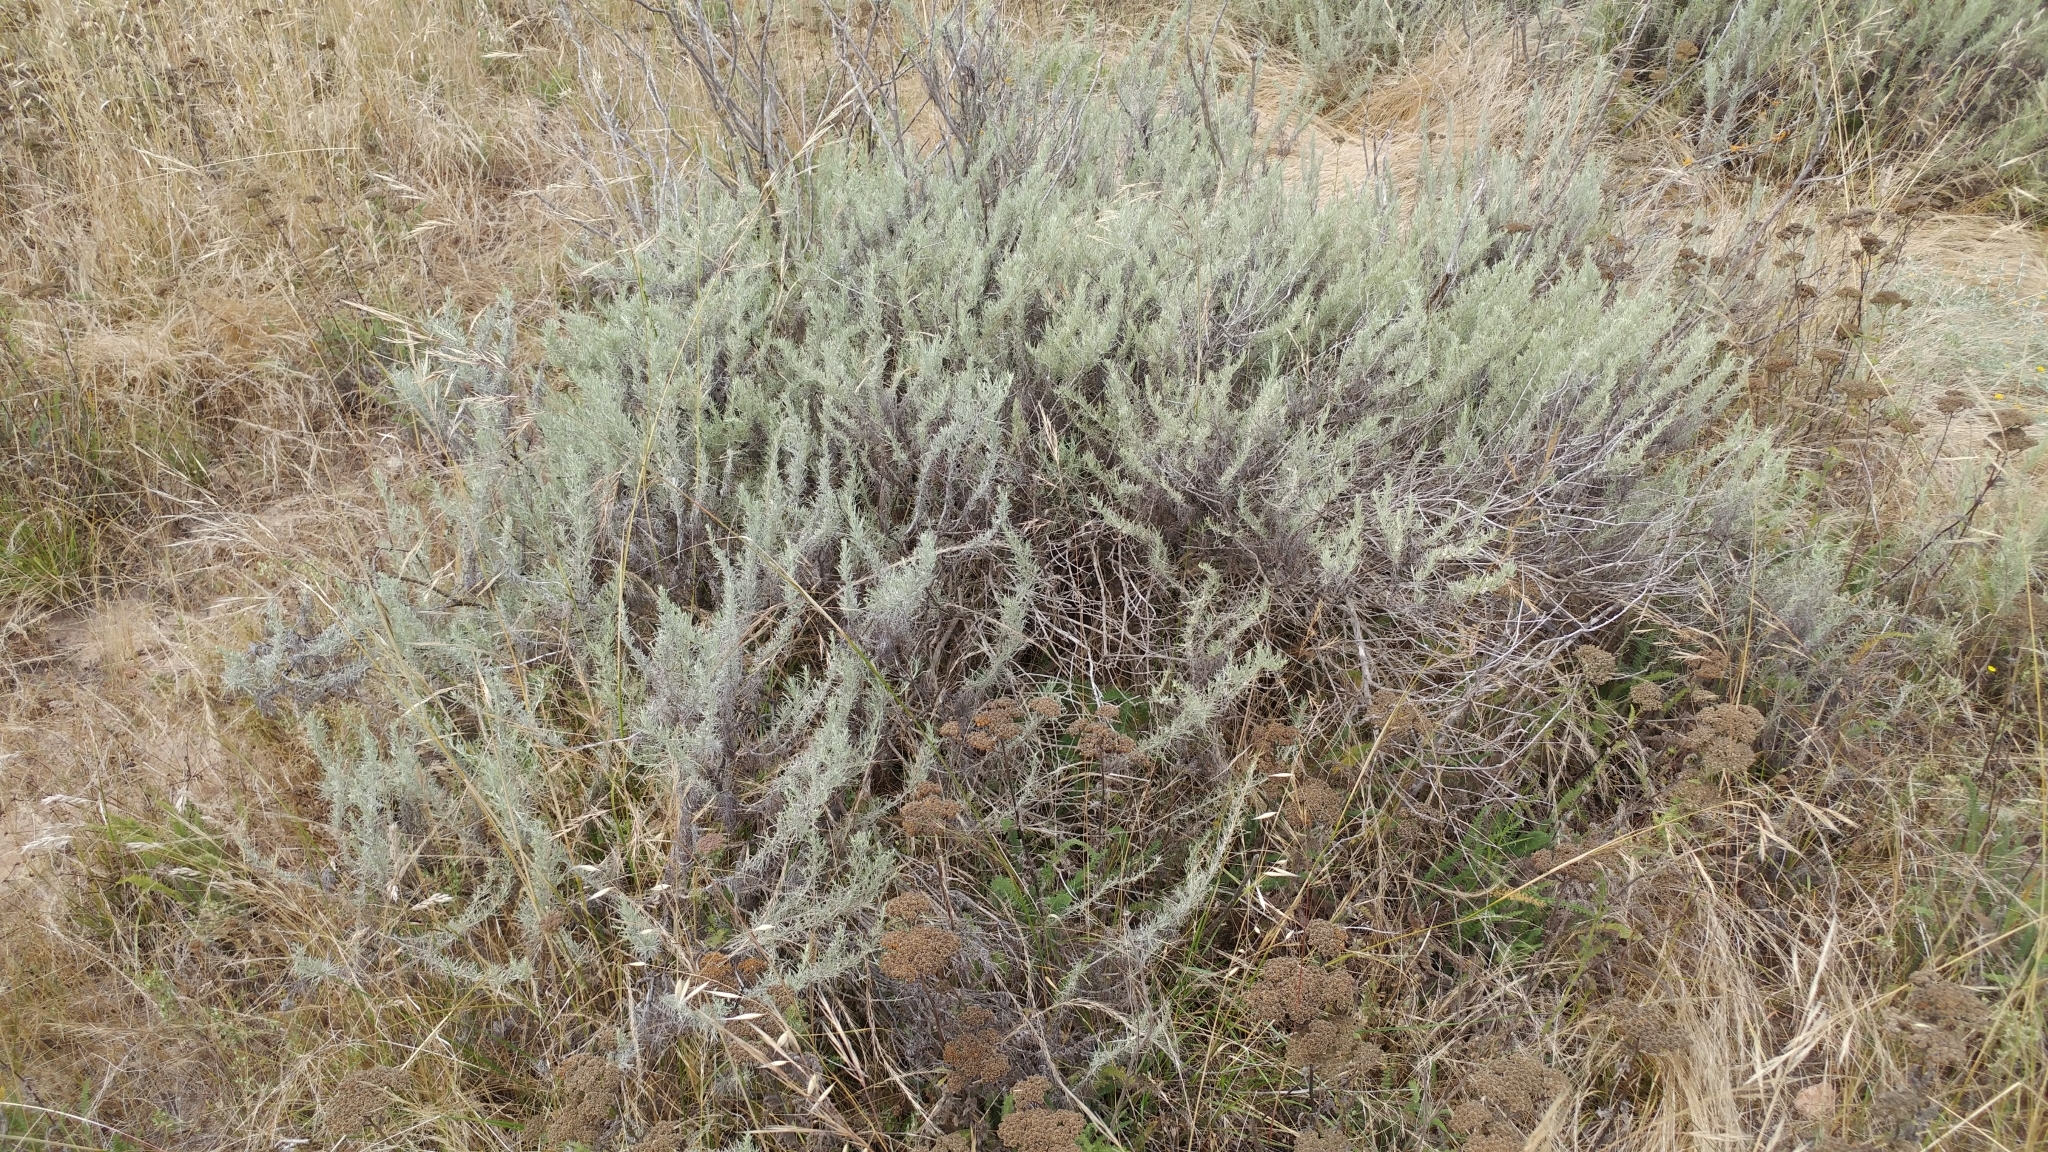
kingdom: Plantae
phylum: Tracheophyta
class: Magnoliopsida
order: Asterales
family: Asteraceae
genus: Artemisia
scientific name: Artemisia californica
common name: California sagebrush
